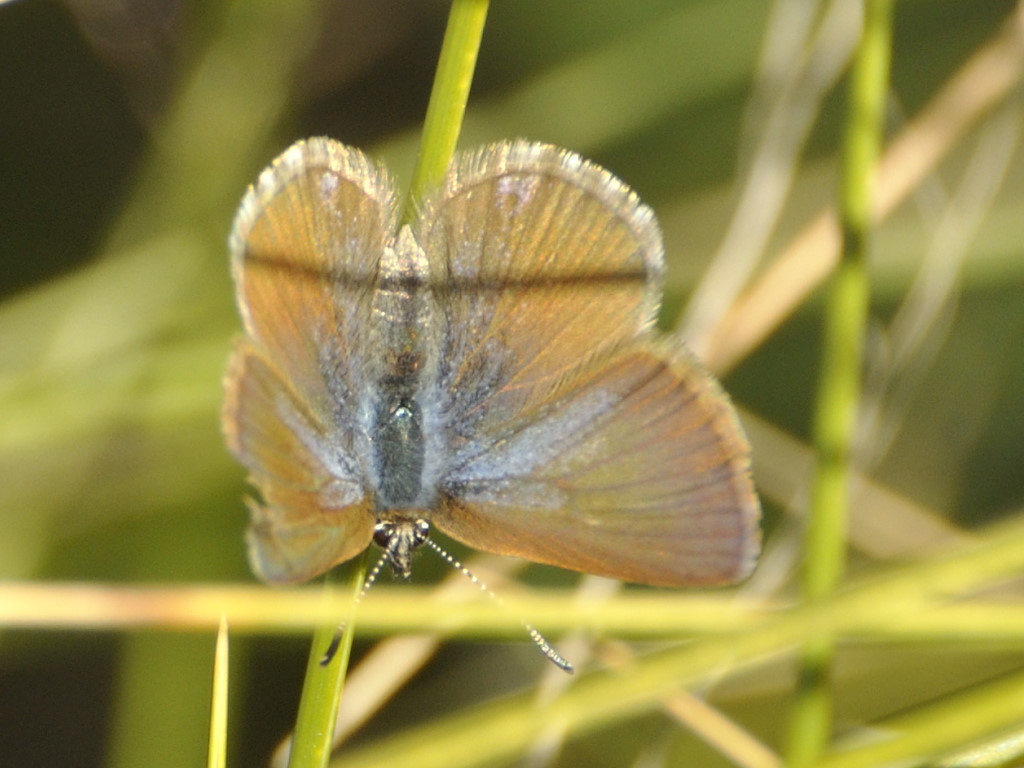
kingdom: Animalia
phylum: Arthropoda
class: Insecta
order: Lepidoptera
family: Lycaenidae
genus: Harpendyreus
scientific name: Harpendyreus noquasa
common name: Marsh mountain blue
